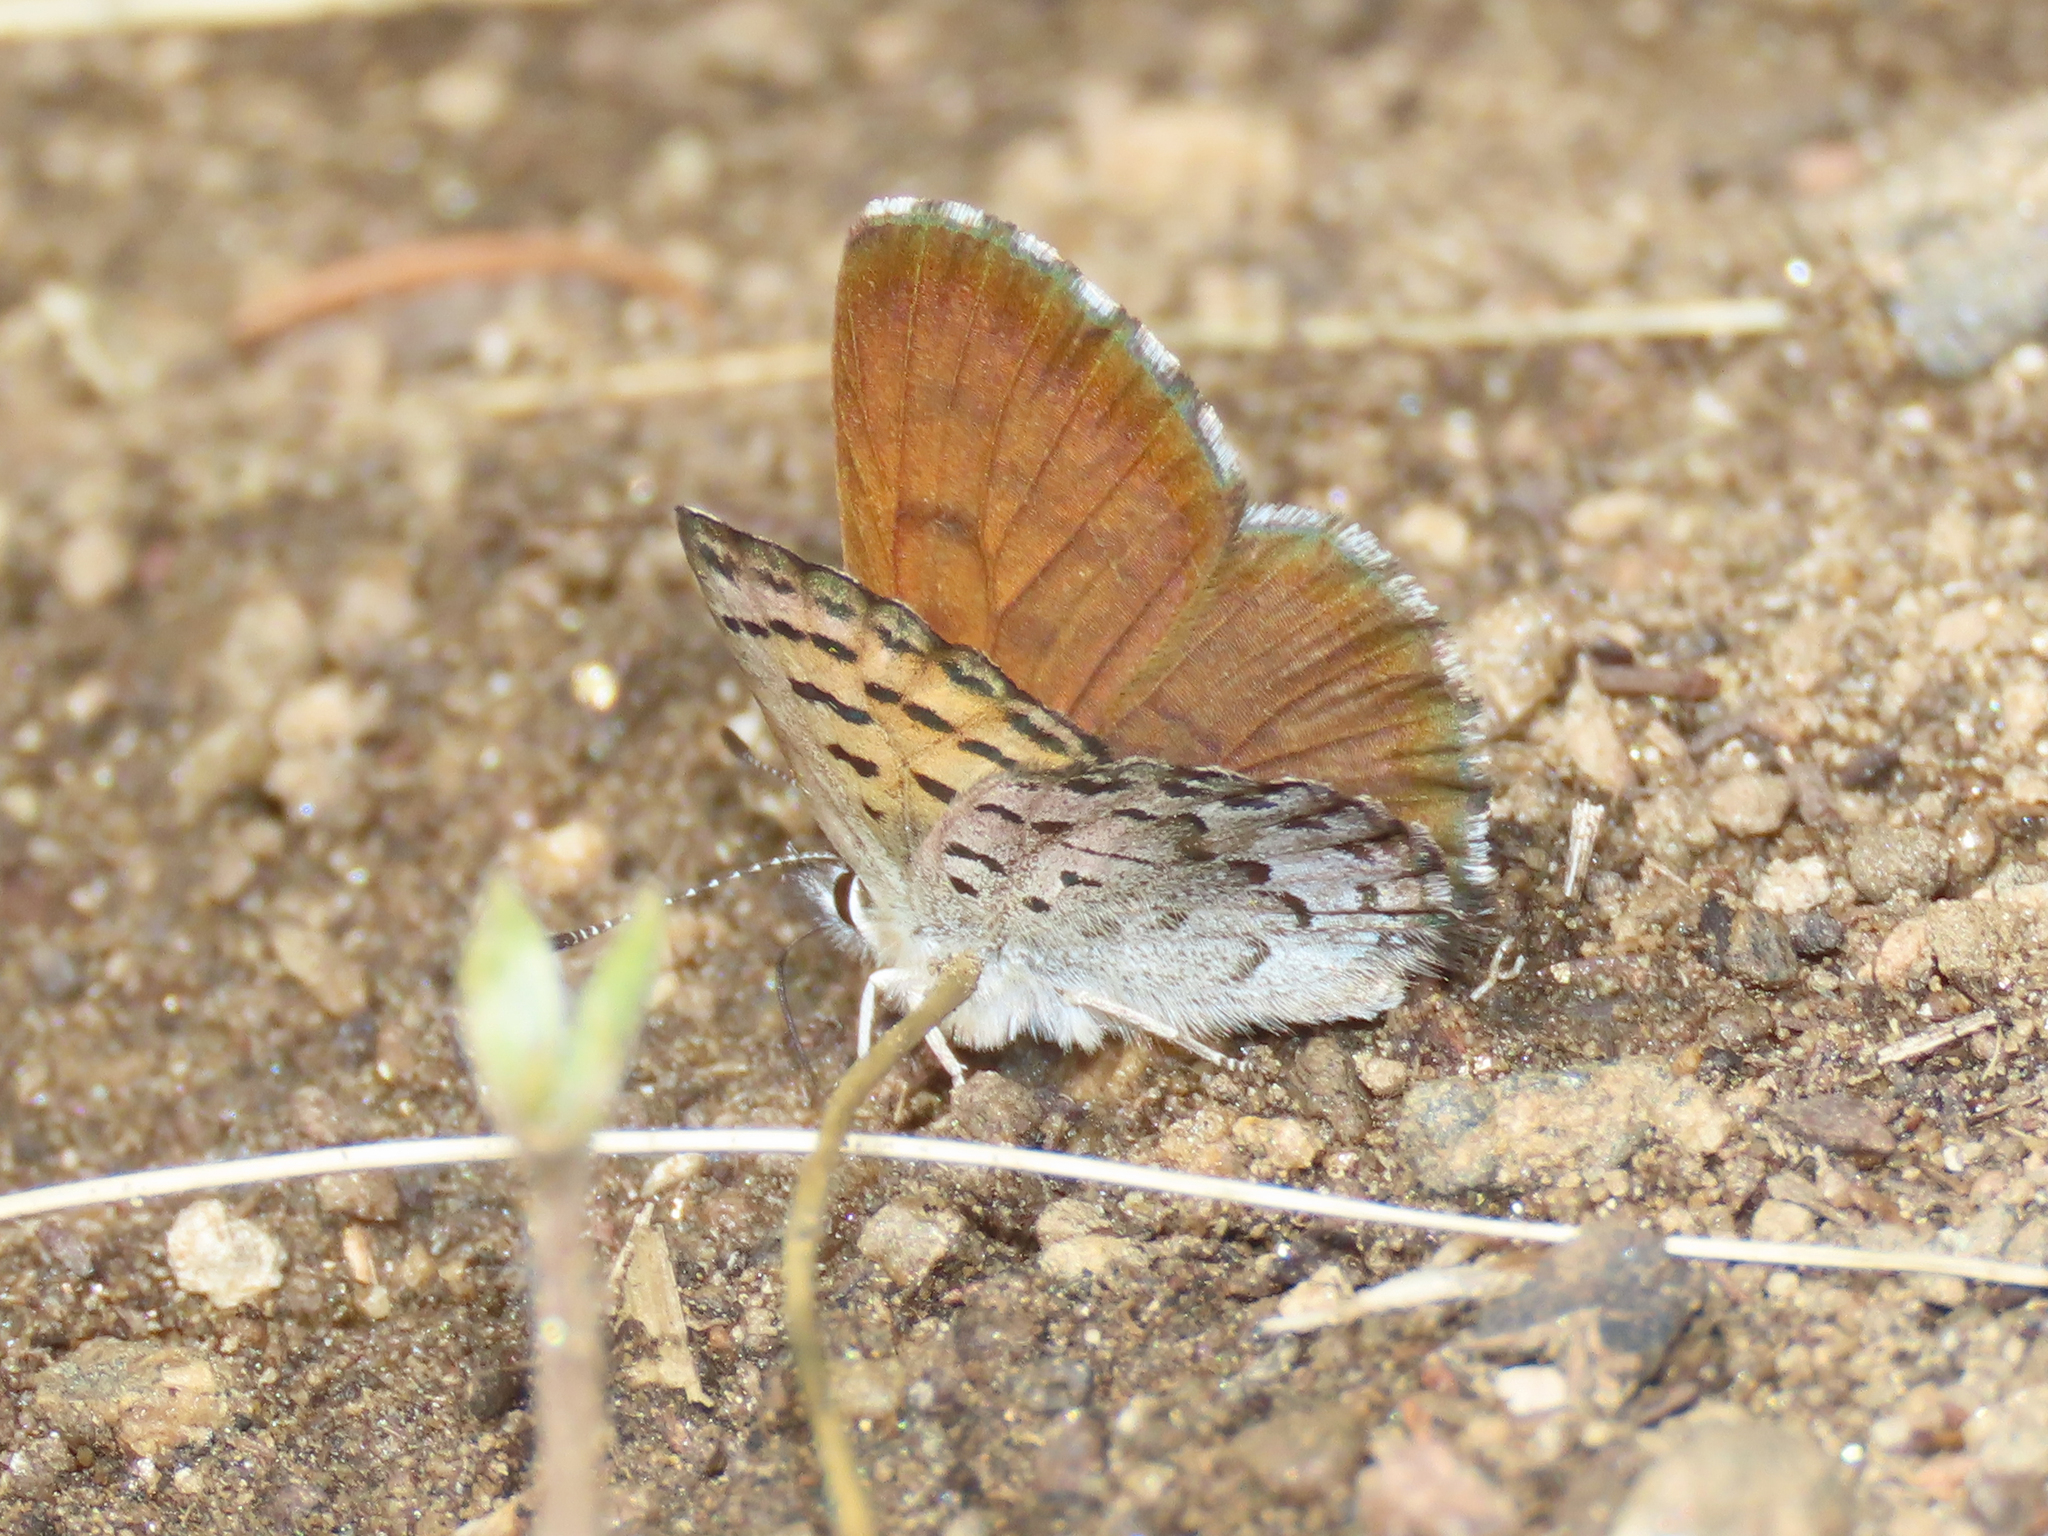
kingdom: Animalia
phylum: Arthropoda
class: Insecta
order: Lepidoptera
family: Lycaenidae
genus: Tharsalea
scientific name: Tharsalea mariposa
